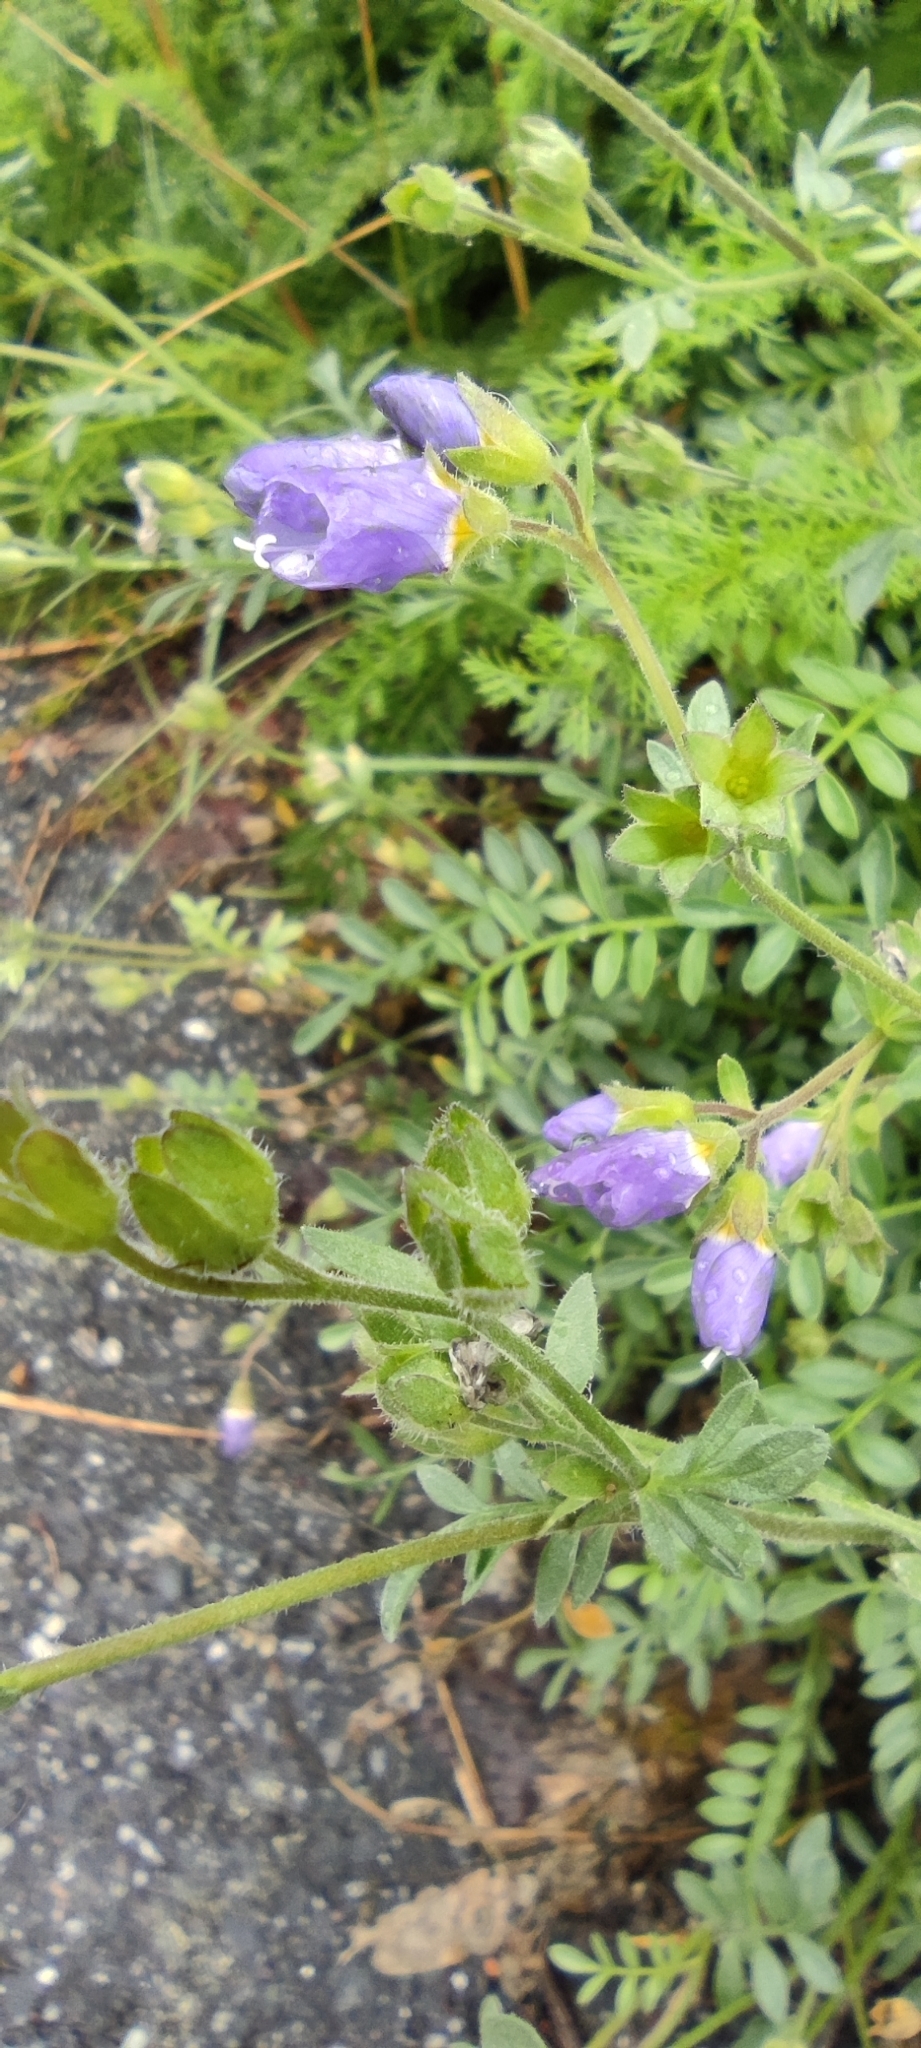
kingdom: Plantae
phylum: Tracheophyta
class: Magnoliopsida
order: Ericales
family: Polemoniaceae
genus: Polemonium
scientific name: Polemonium pulcherrimum
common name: Short jacob's-ladder
